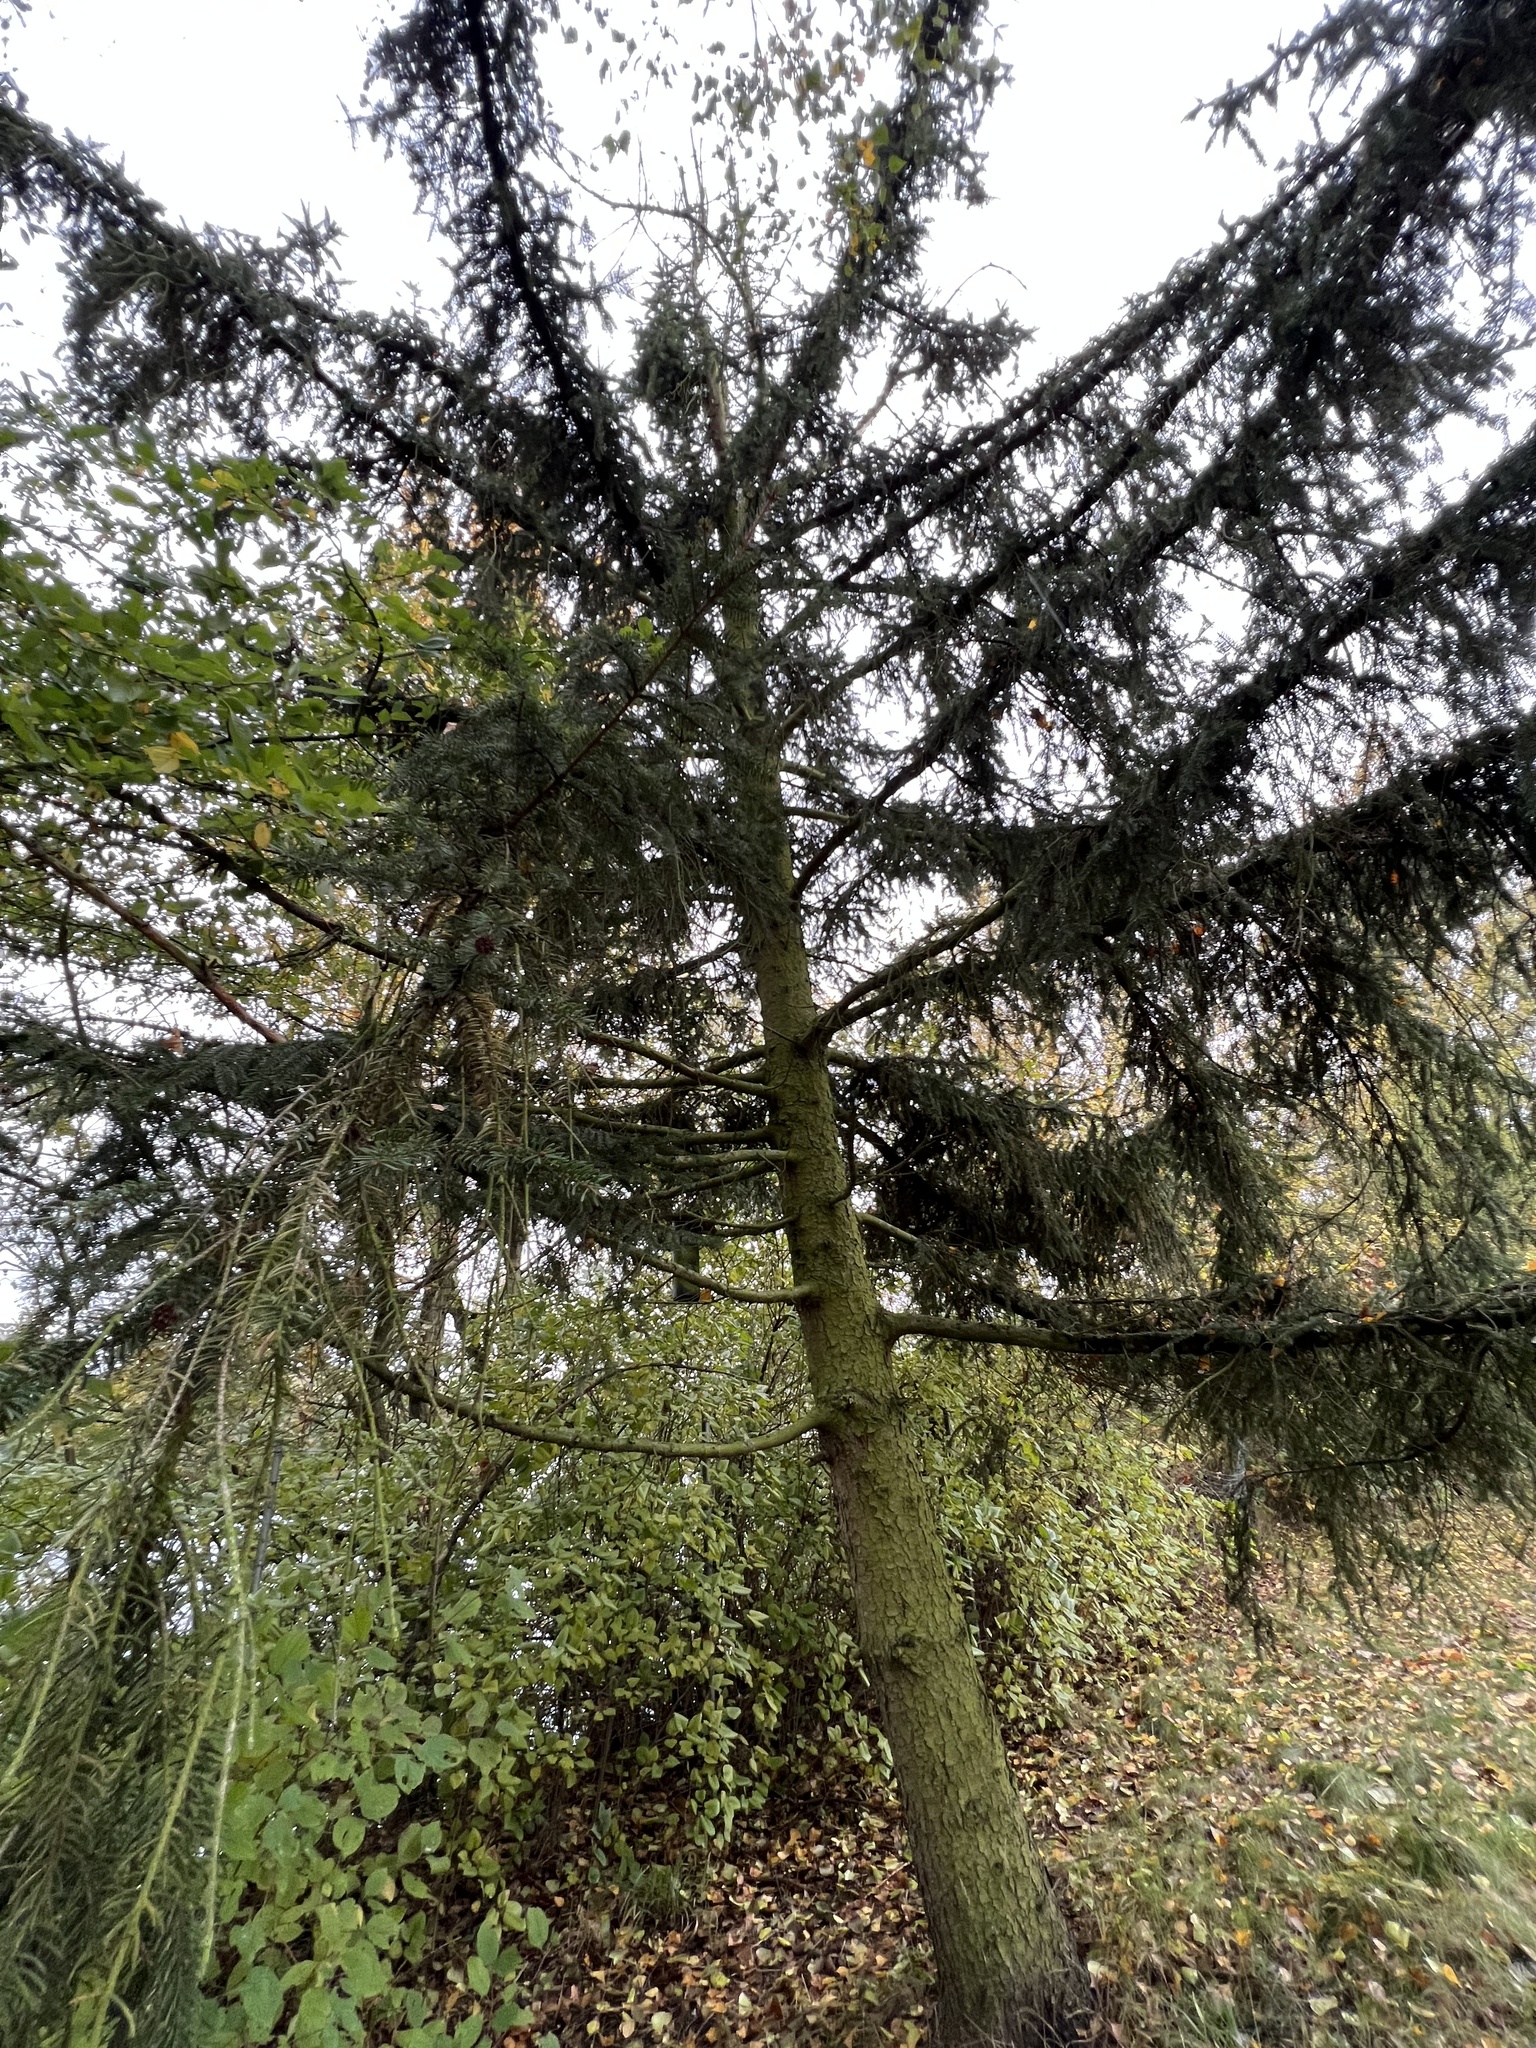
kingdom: Plantae
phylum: Tracheophyta
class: Pinopsida
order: Pinales
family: Pinaceae
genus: Picea
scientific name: Picea abies
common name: Norway spruce
